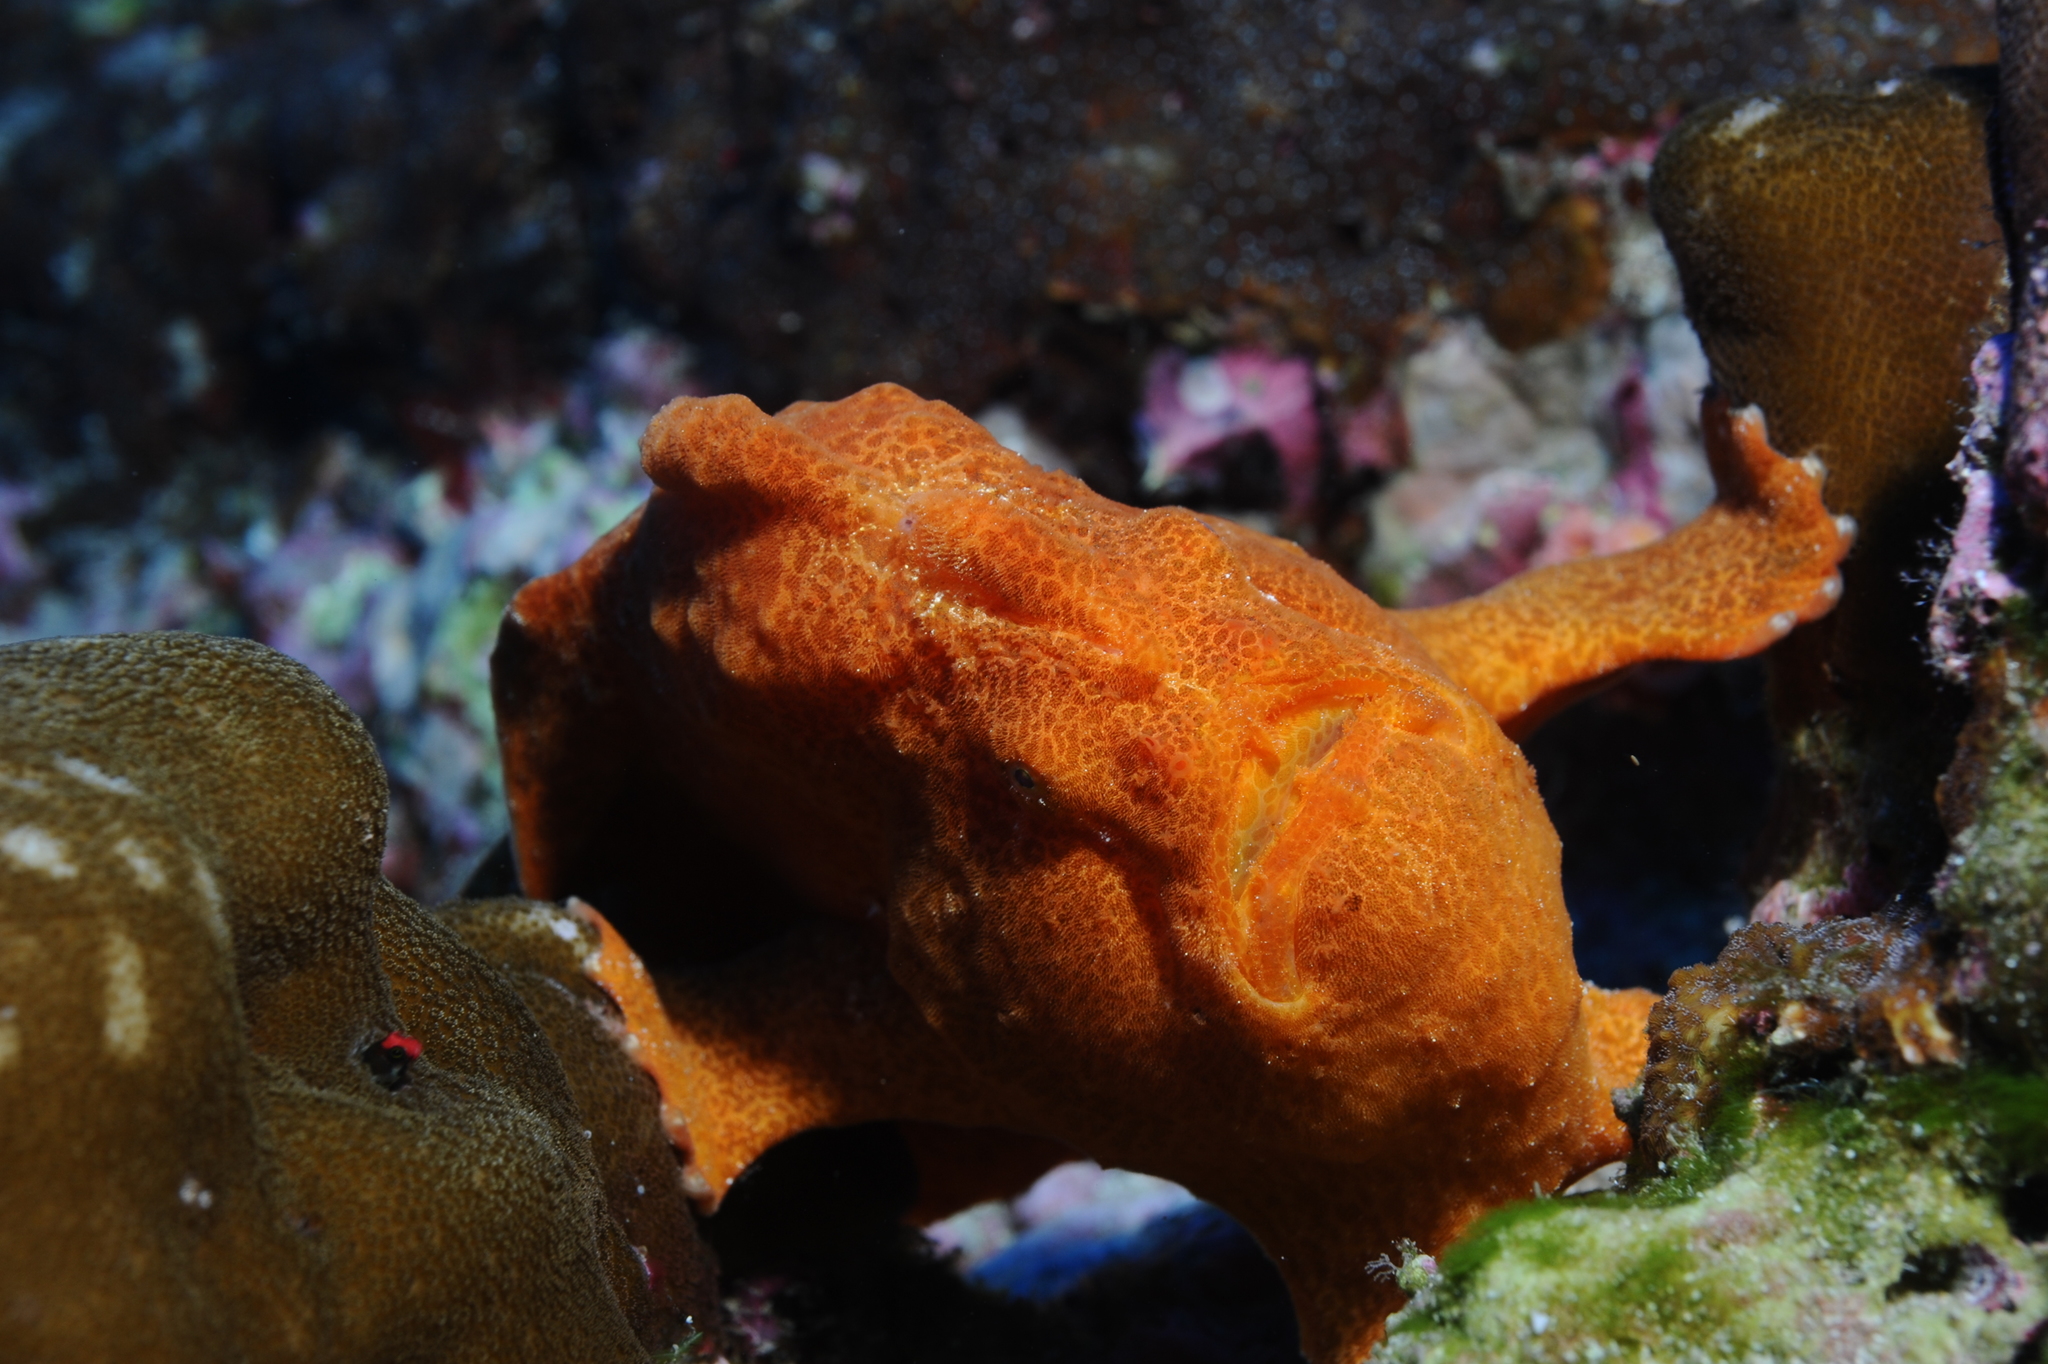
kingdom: Animalia
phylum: Chordata
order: Lophiiformes
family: Antennariidae
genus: Antennarius
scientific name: Antennarius commerson
